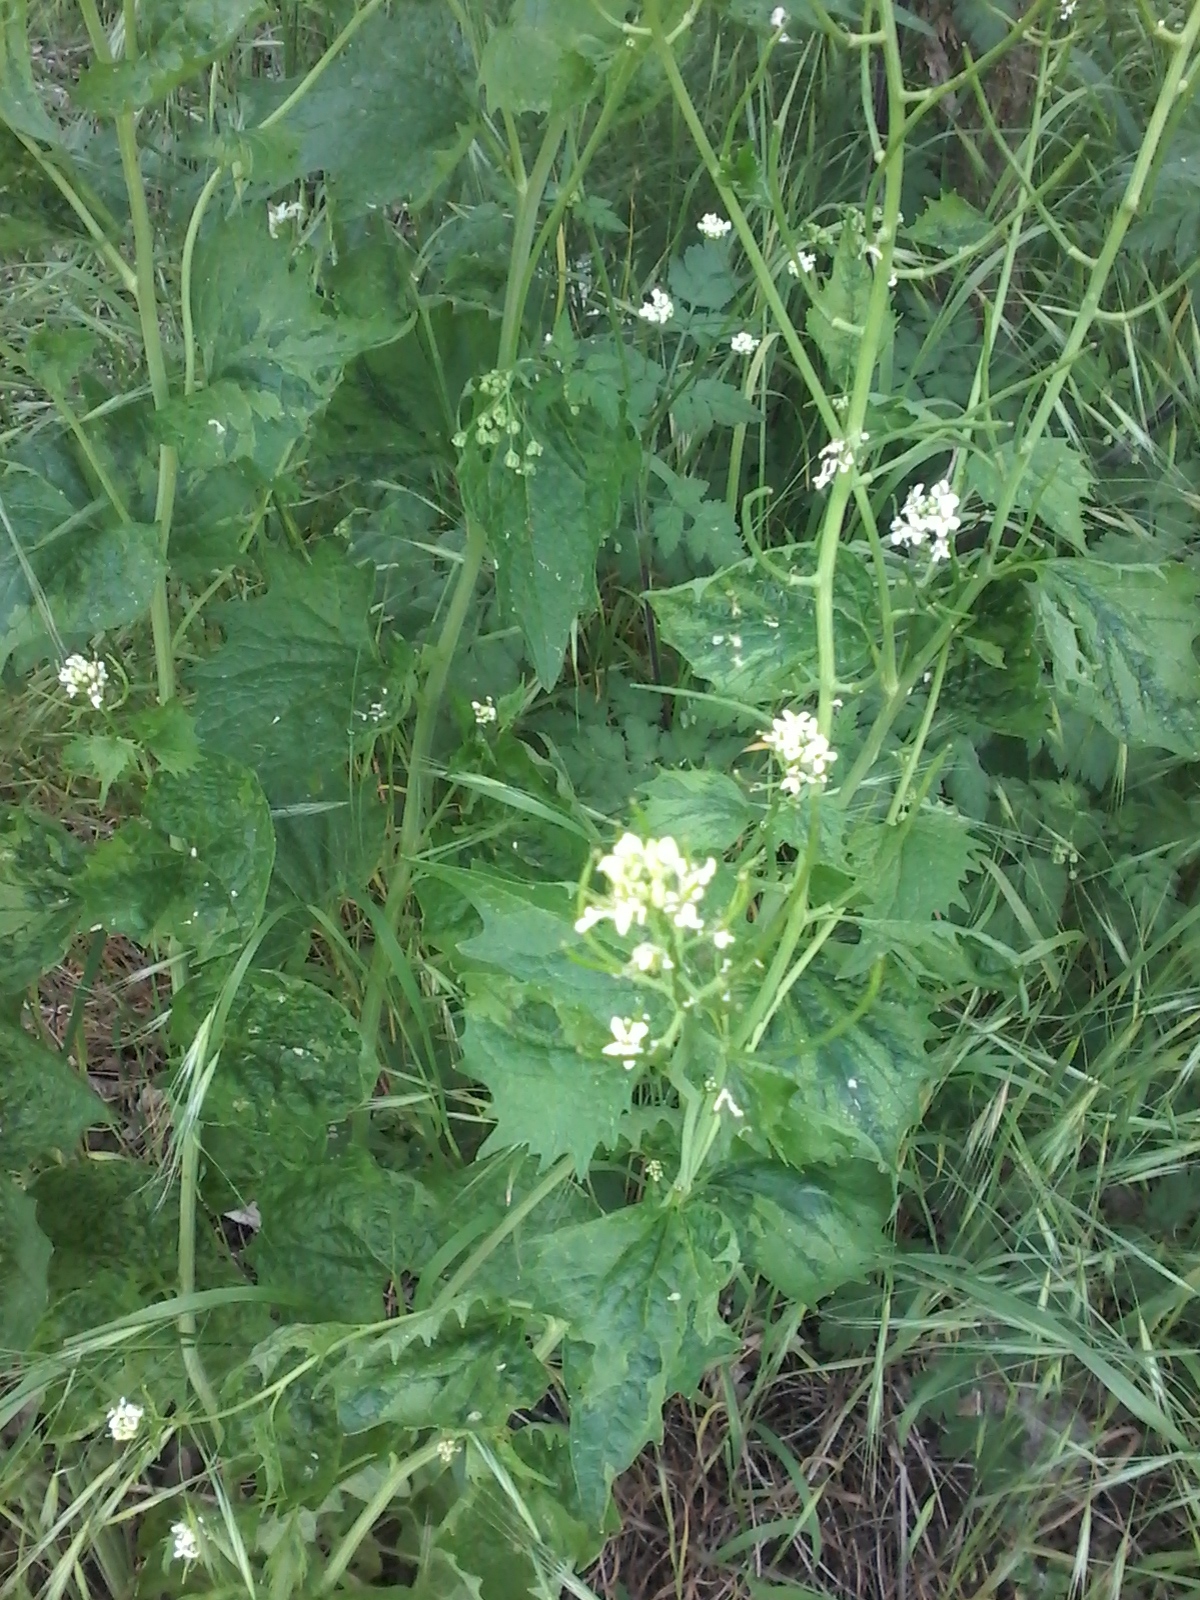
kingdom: Plantae
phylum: Tracheophyta
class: Magnoliopsida
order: Brassicales
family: Brassicaceae
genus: Alliaria
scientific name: Alliaria petiolata
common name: Garlic mustard
